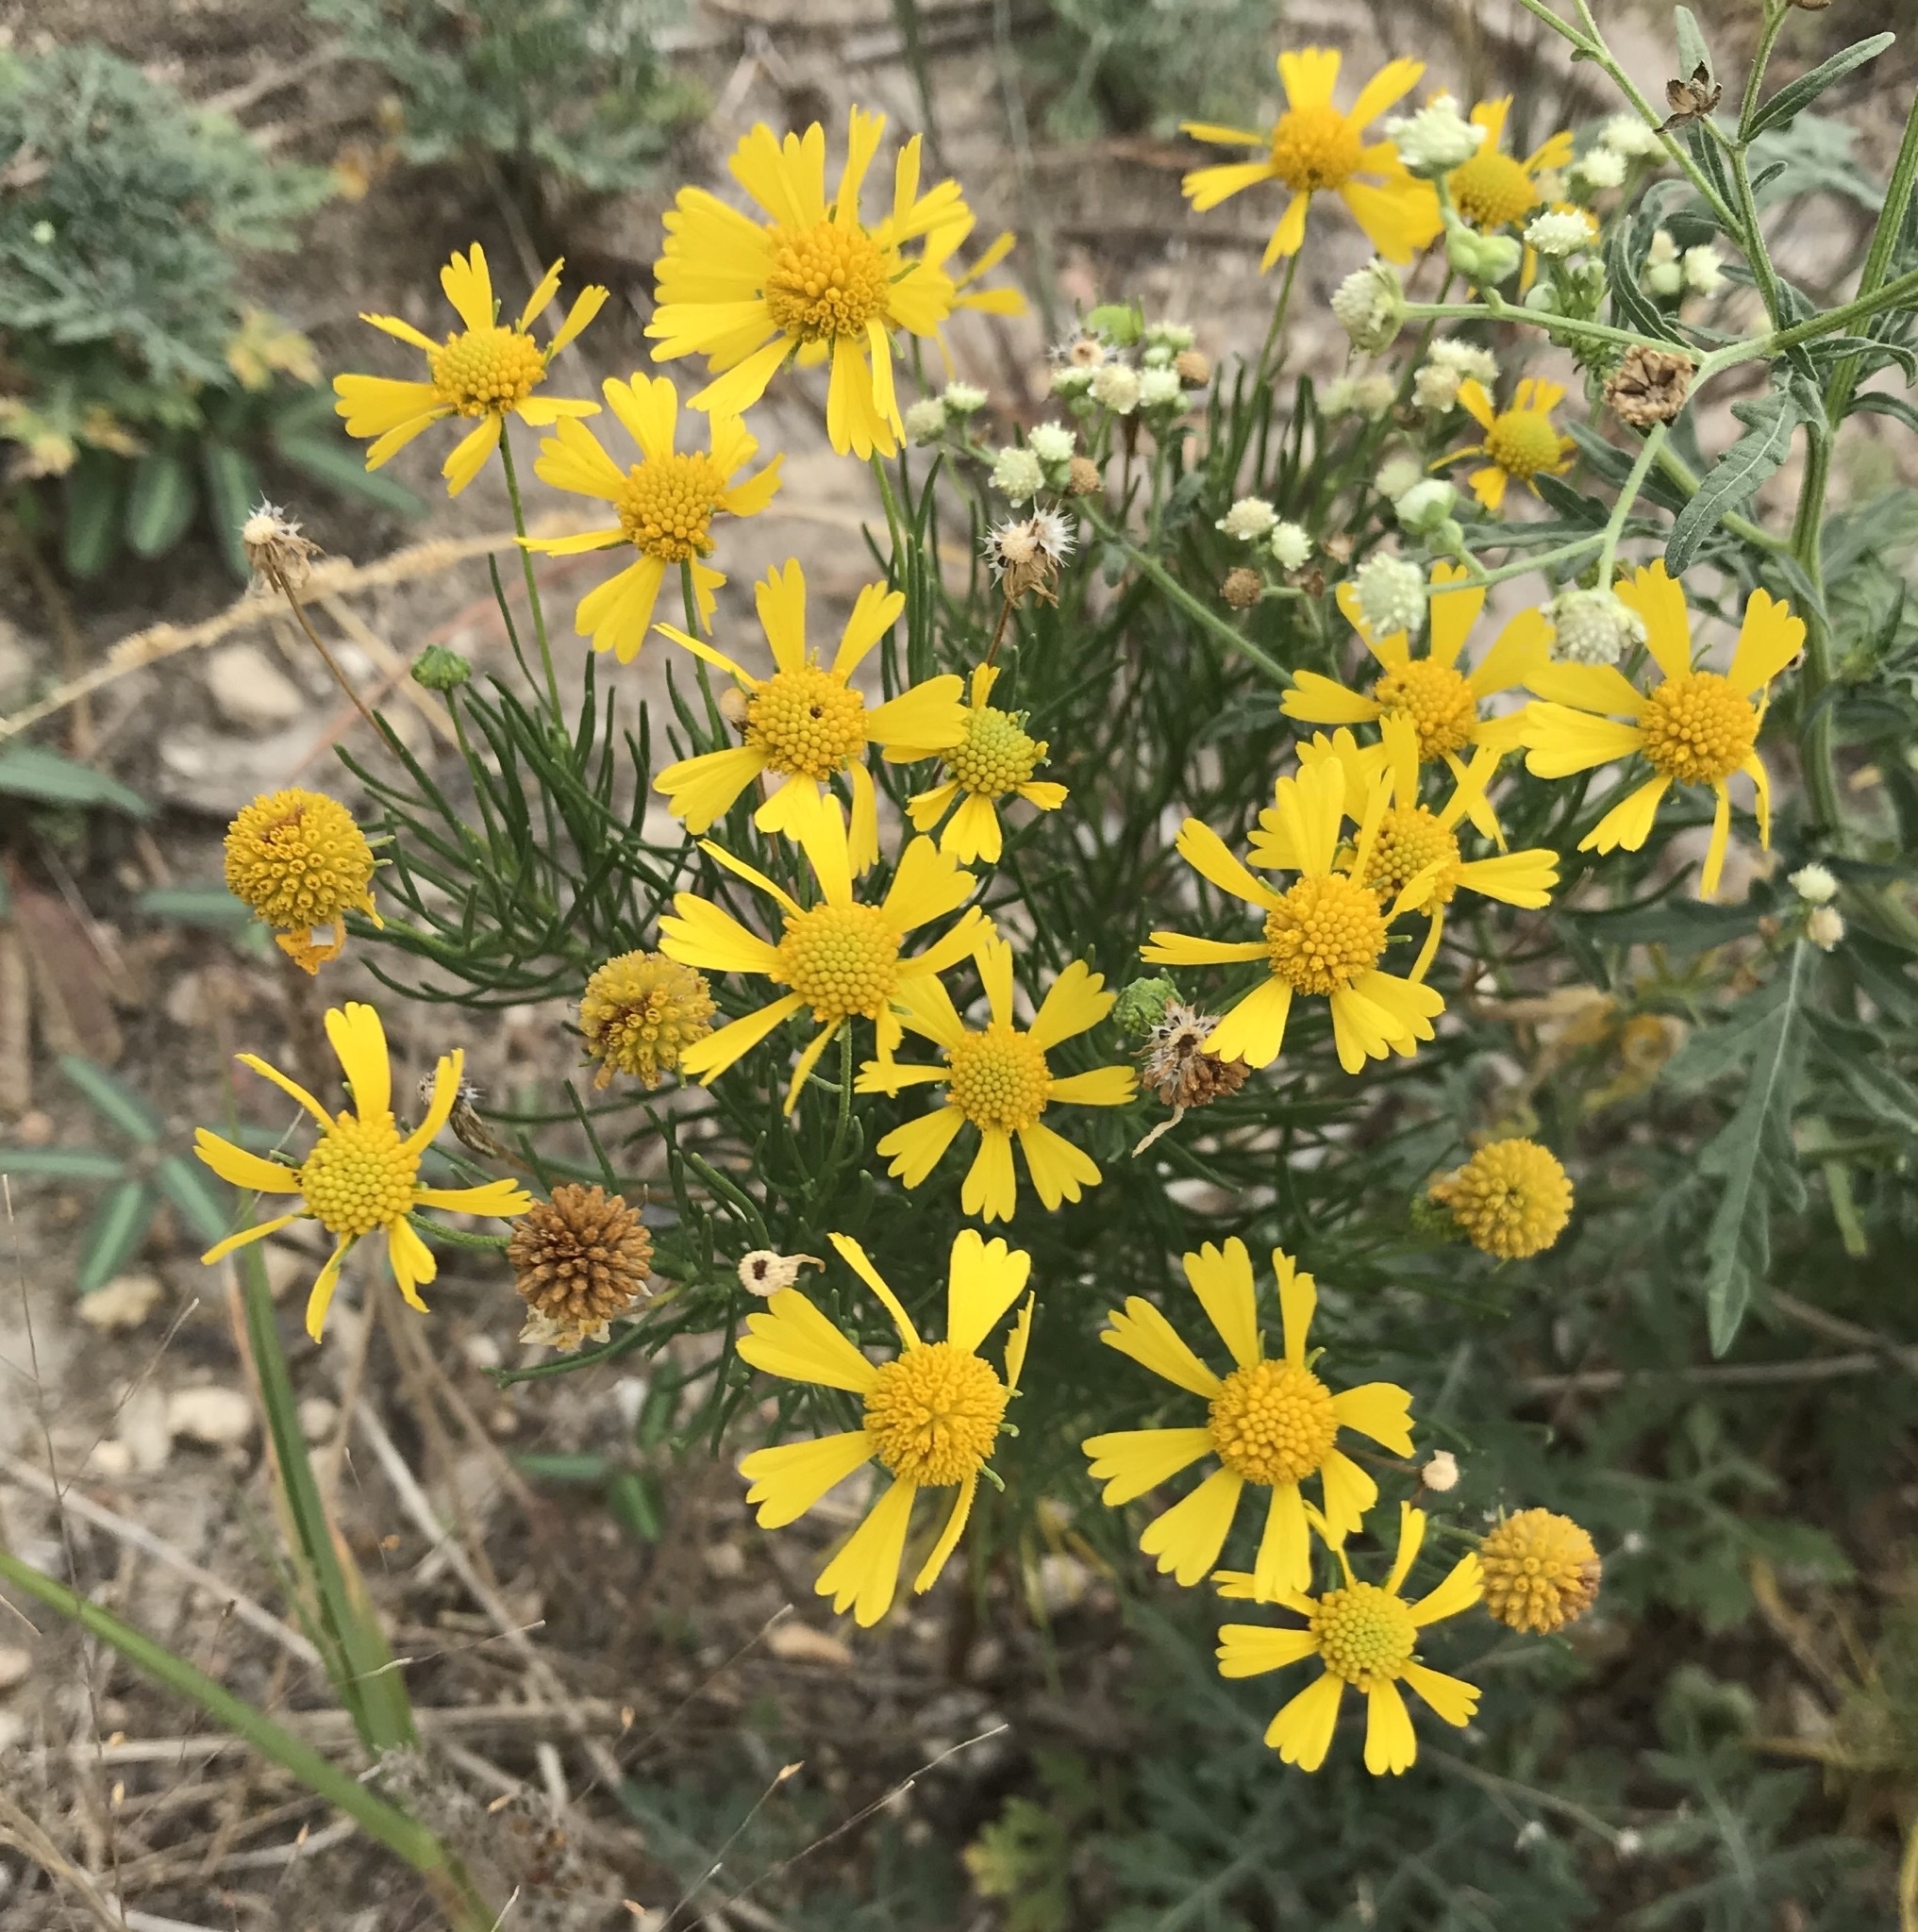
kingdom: Plantae
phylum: Tracheophyta
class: Magnoliopsida
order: Asterales
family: Asteraceae
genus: Helenium
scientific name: Helenium amarum
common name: Bitter sneezeweed
